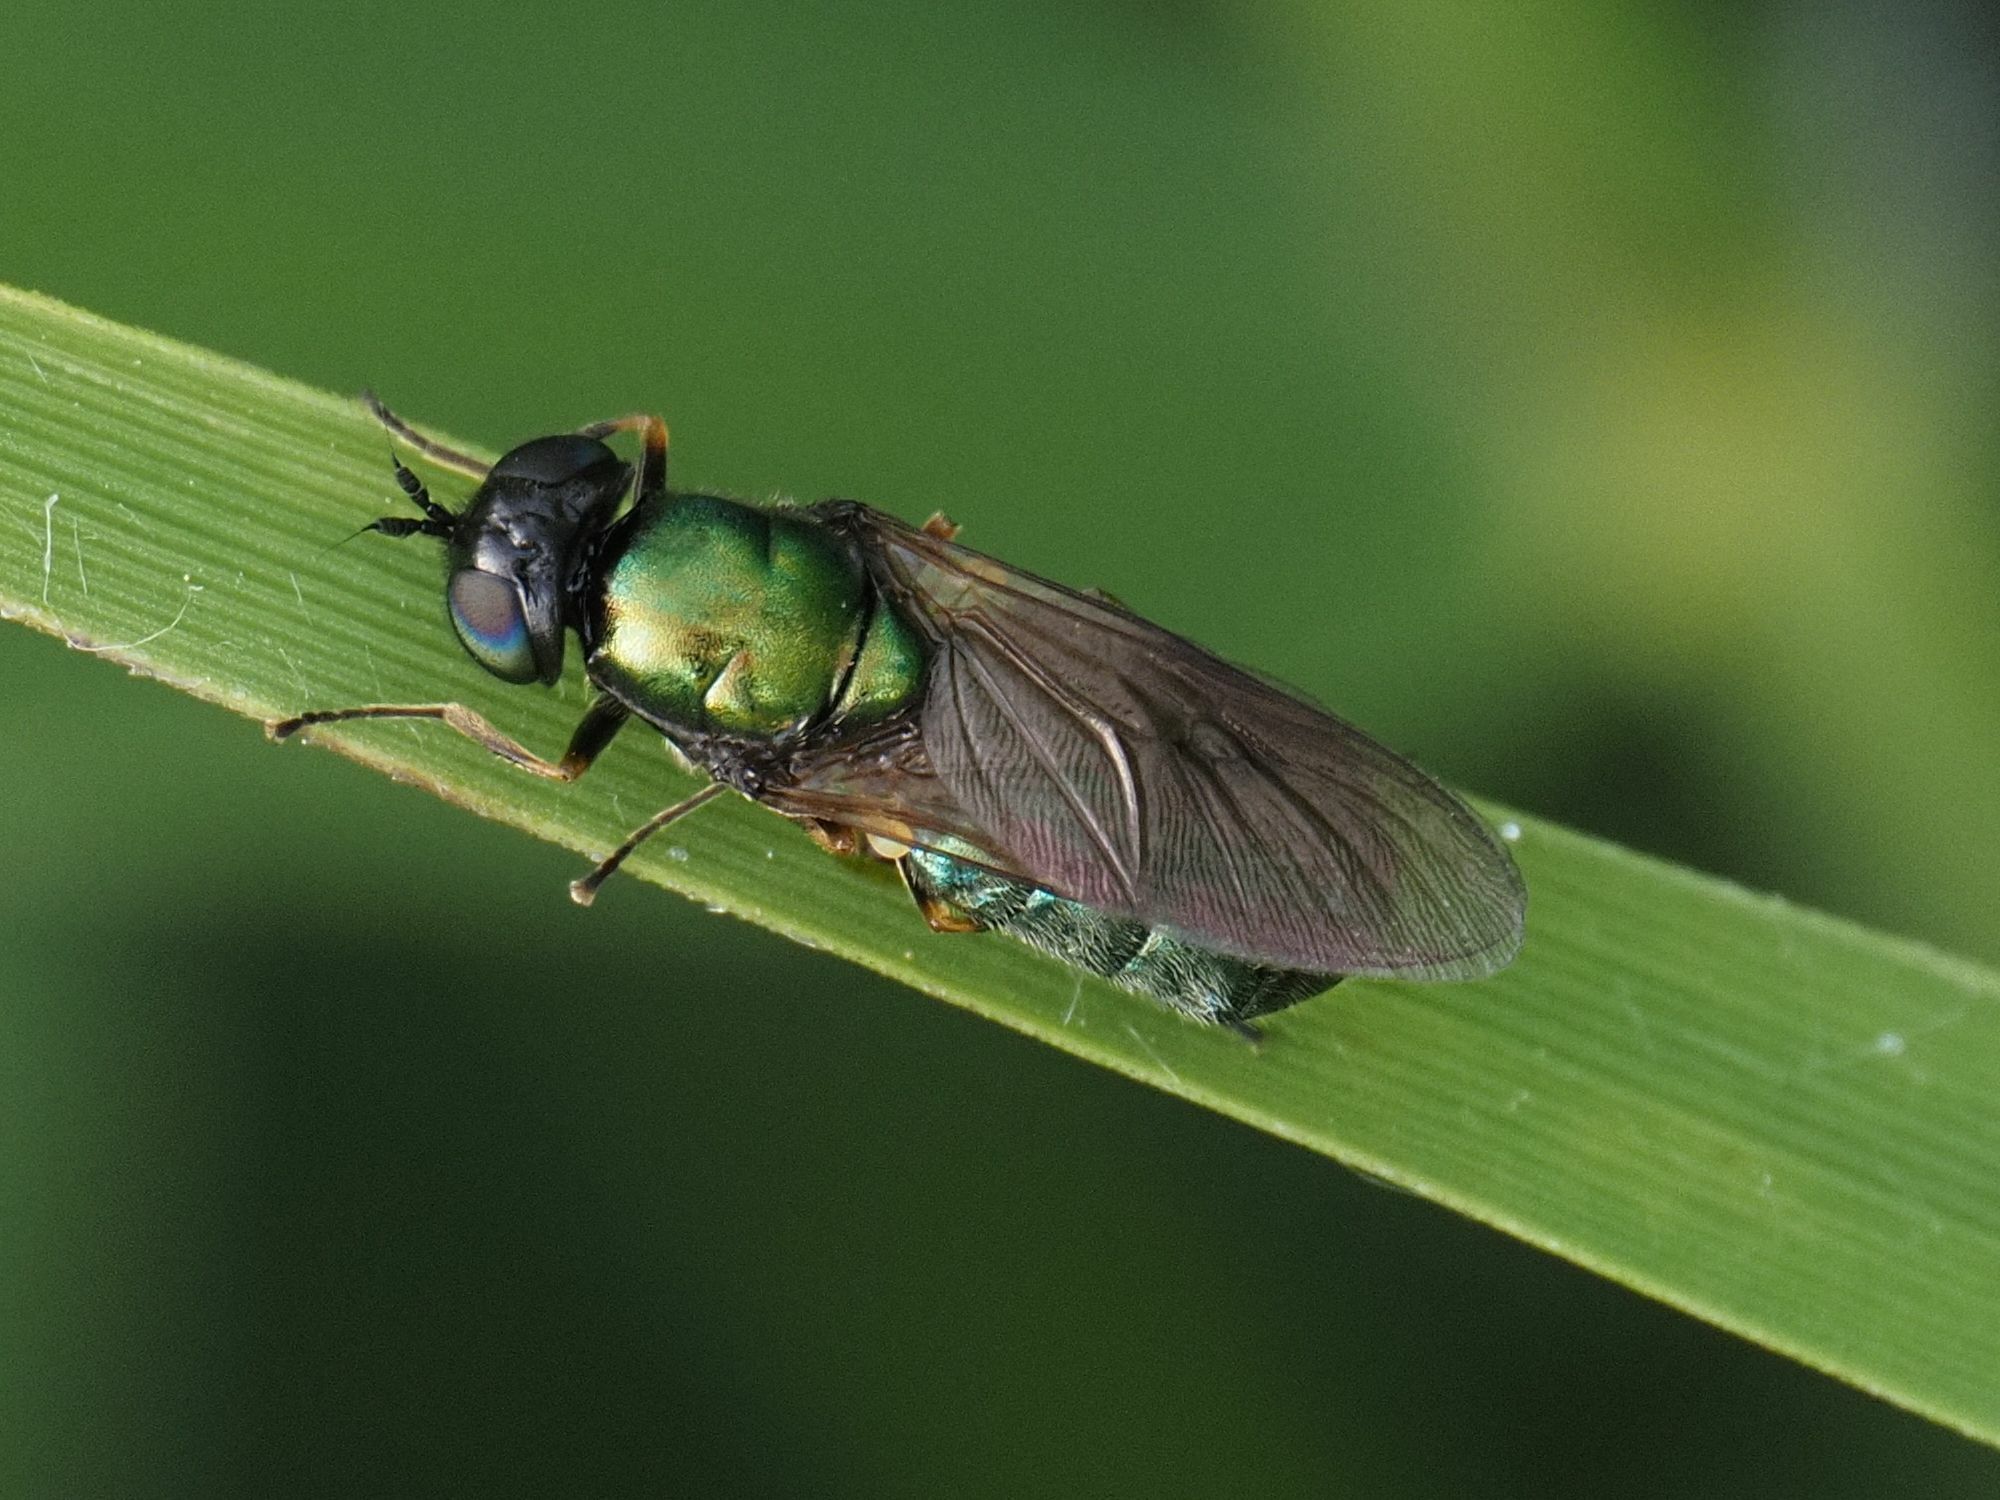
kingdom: Animalia
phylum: Arthropoda
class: Insecta
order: Diptera
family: Stratiomyidae
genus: Chloromyia
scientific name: Chloromyia formosa
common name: Soldier fly
